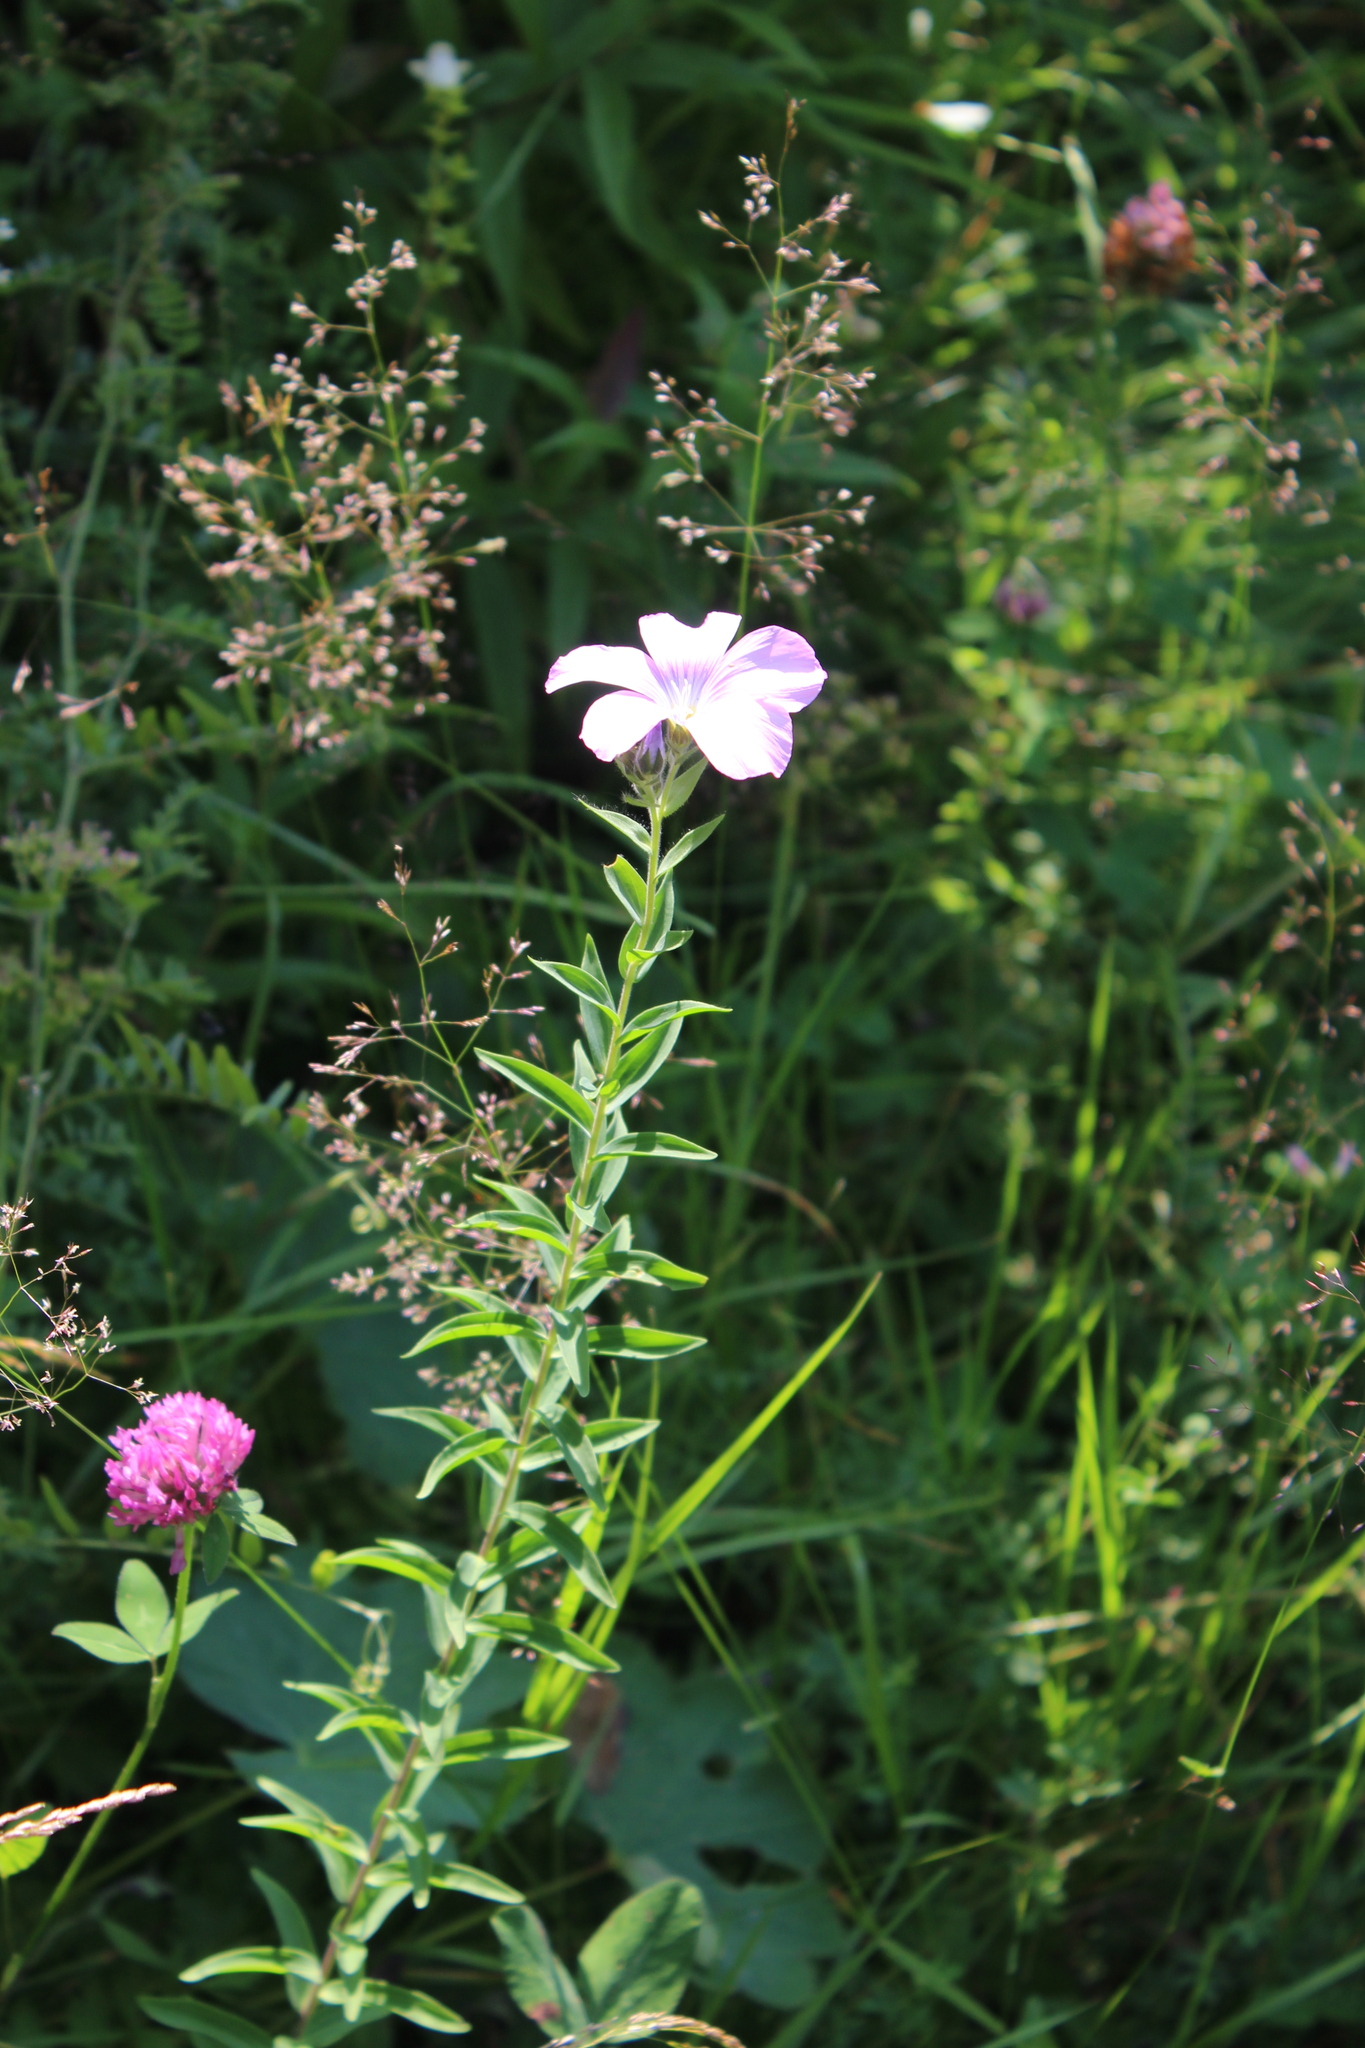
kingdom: Plantae
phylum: Tracheophyta
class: Magnoliopsida
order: Malpighiales
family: Linaceae
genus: Linum
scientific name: Linum hypericifolium
